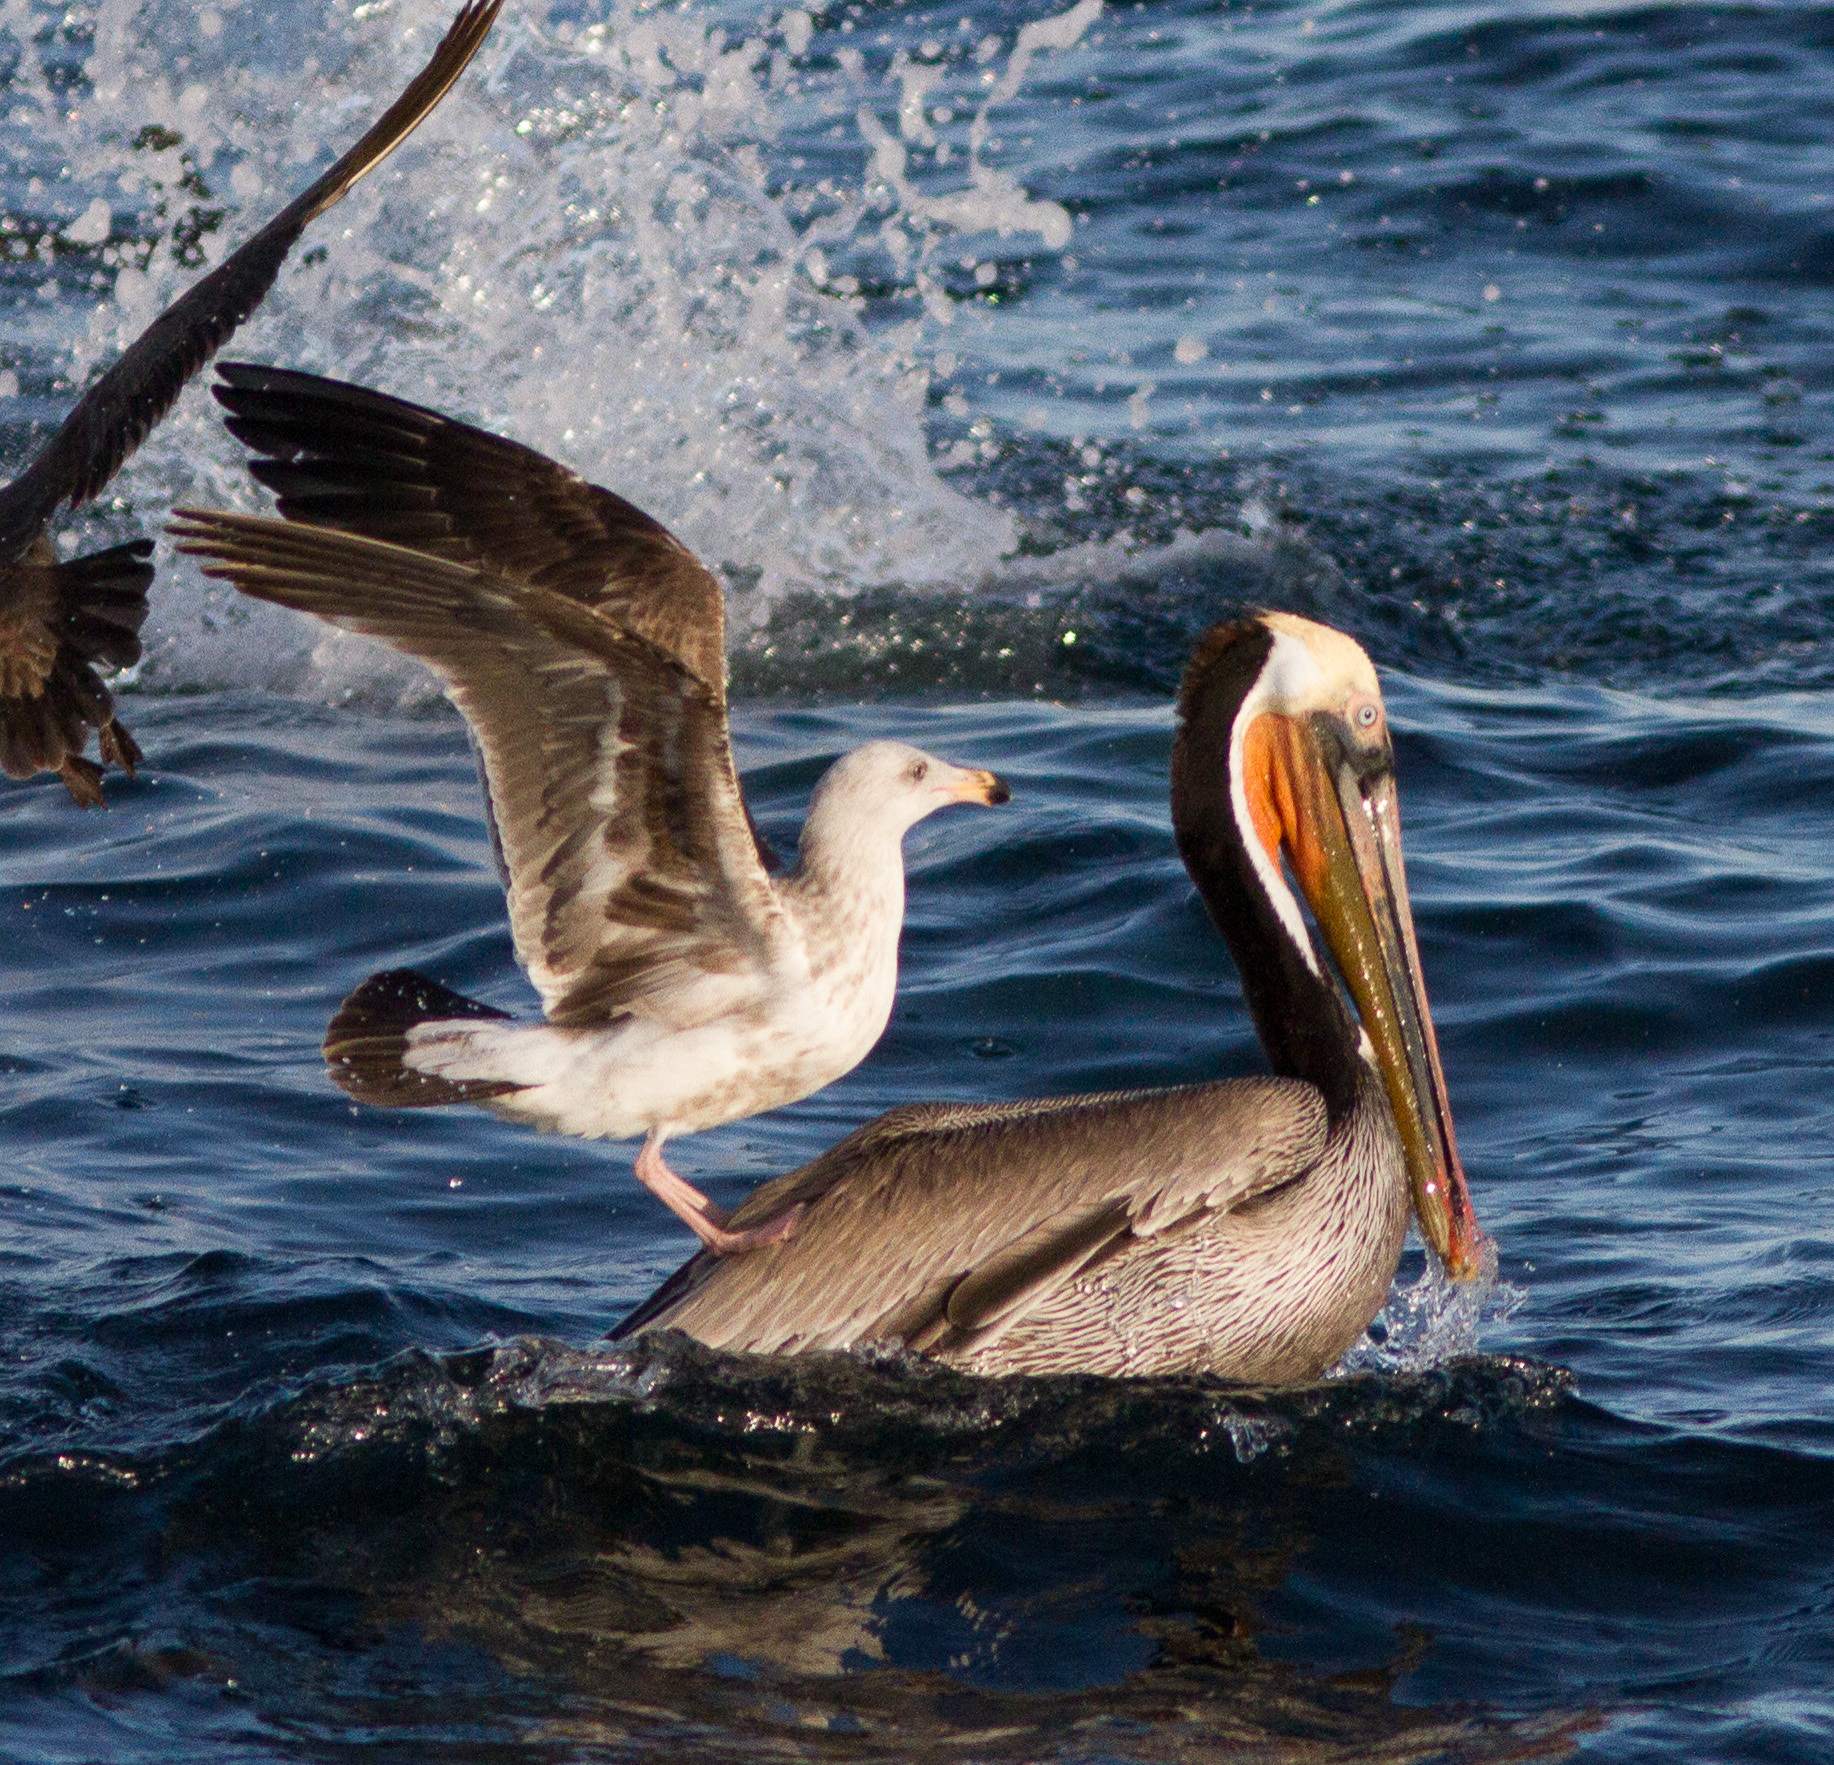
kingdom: Animalia
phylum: Chordata
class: Aves
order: Charadriiformes
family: Laridae
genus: Larus
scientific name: Larus occidentalis
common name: Western gull
